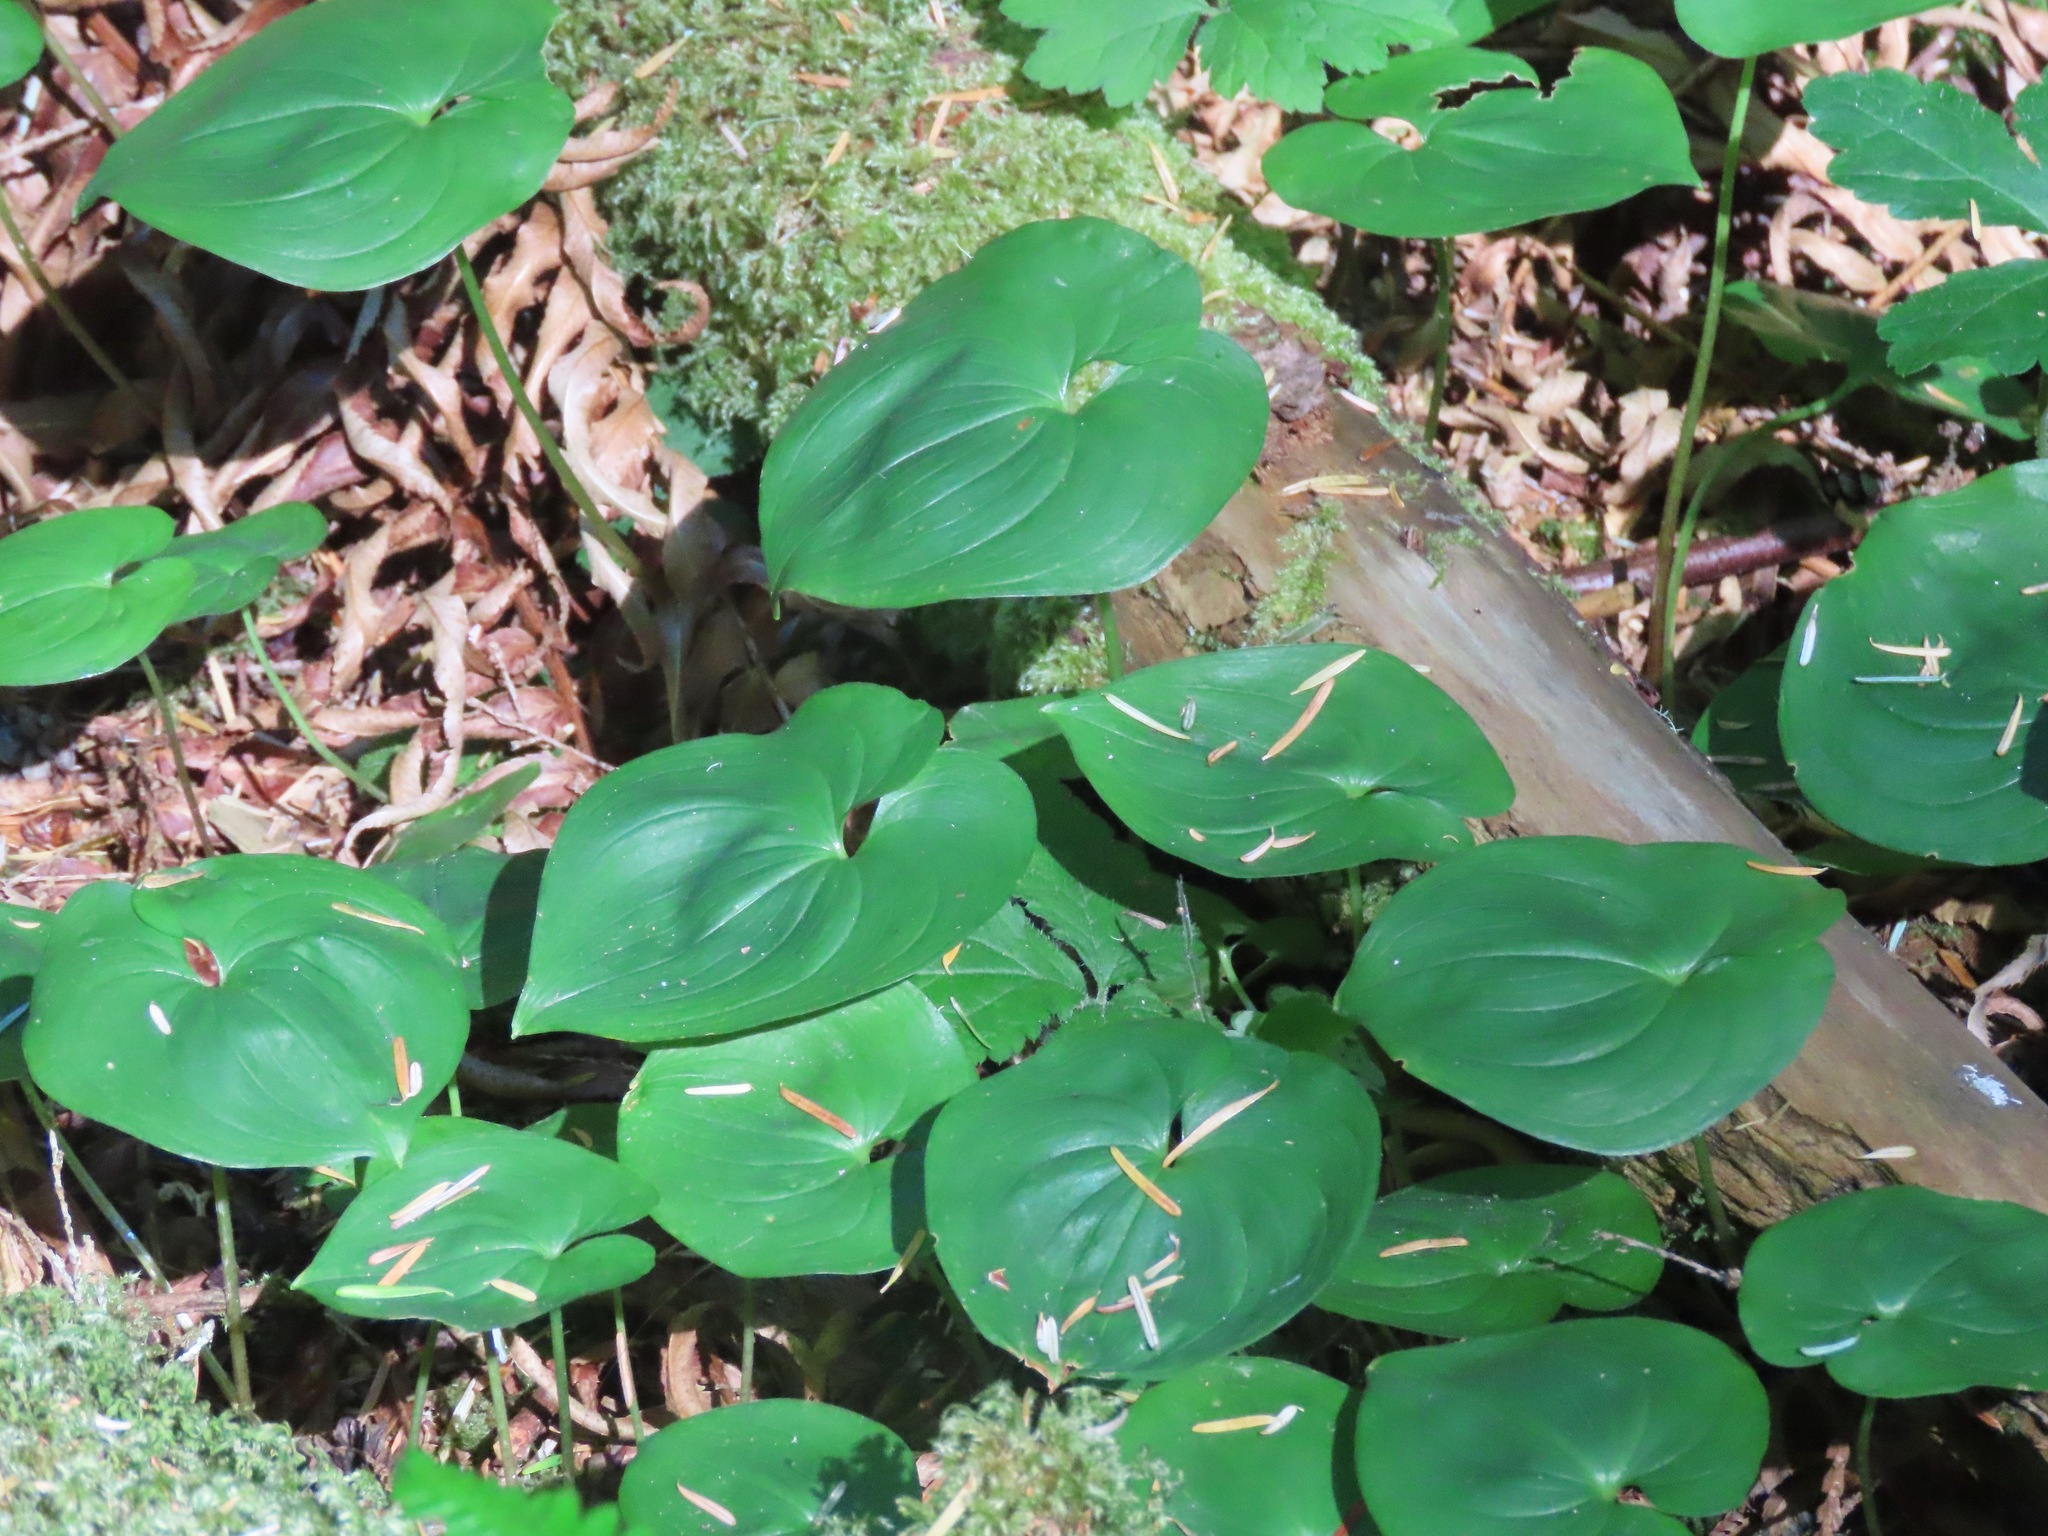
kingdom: Plantae
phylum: Tracheophyta
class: Liliopsida
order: Asparagales
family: Asparagaceae
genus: Maianthemum
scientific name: Maianthemum dilatatum
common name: False lily-of-the-valley
